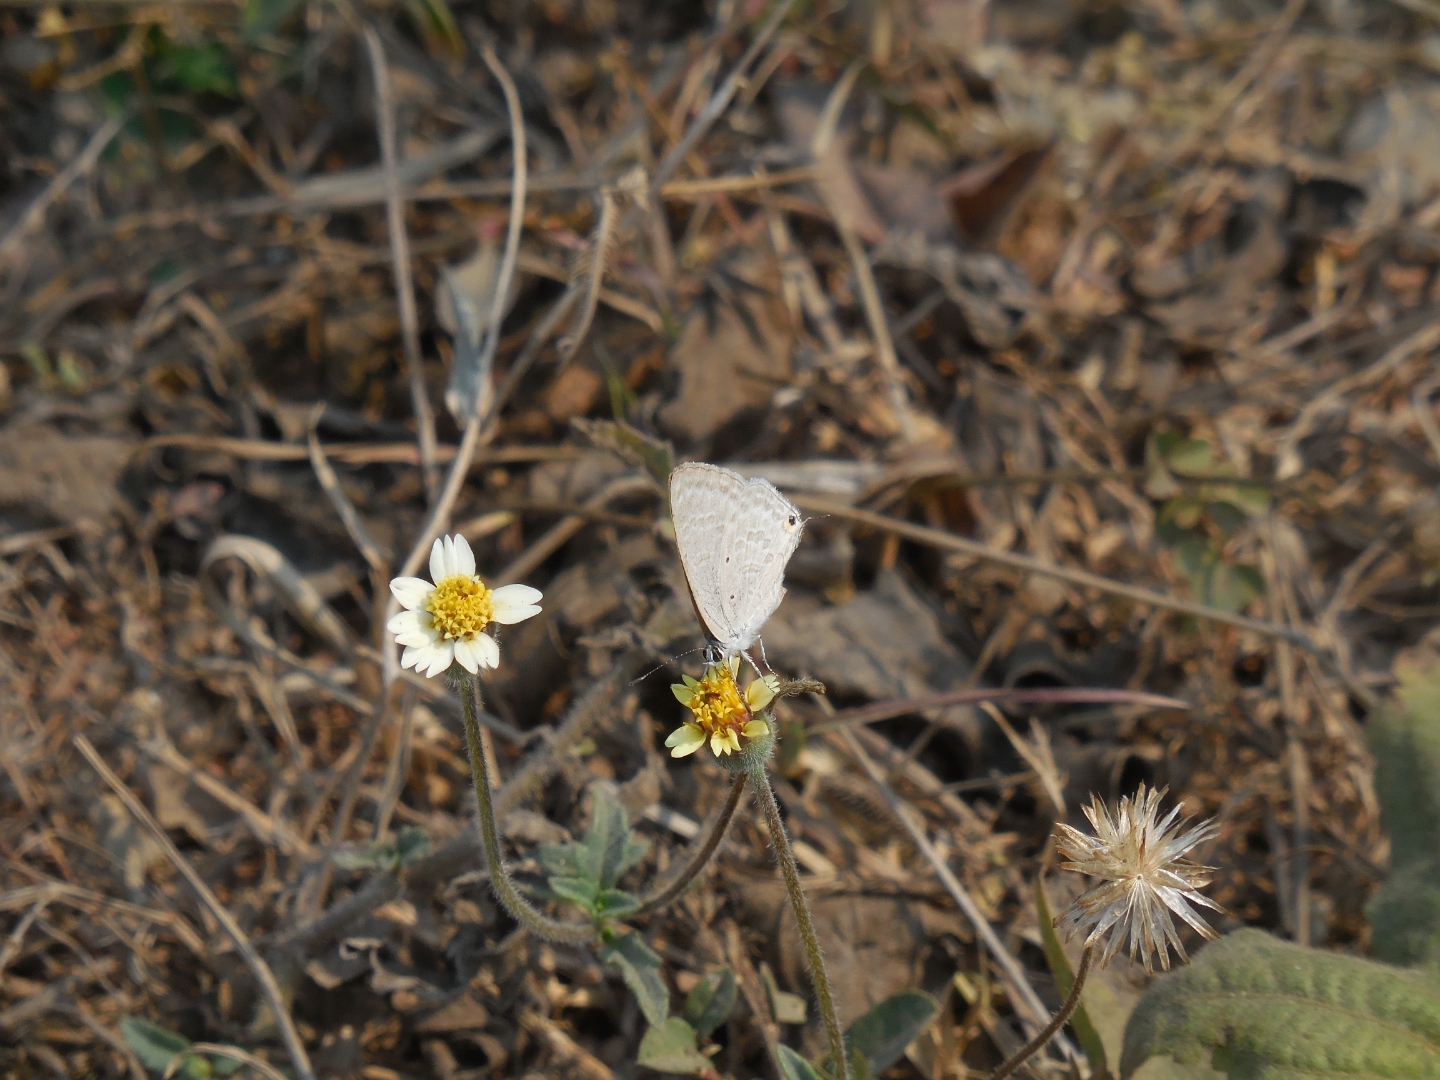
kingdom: Animalia
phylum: Arthropoda
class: Insecta
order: Lepidoptera
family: Lycaenidae
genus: Catochrysops
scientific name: Catochrysops strabo
